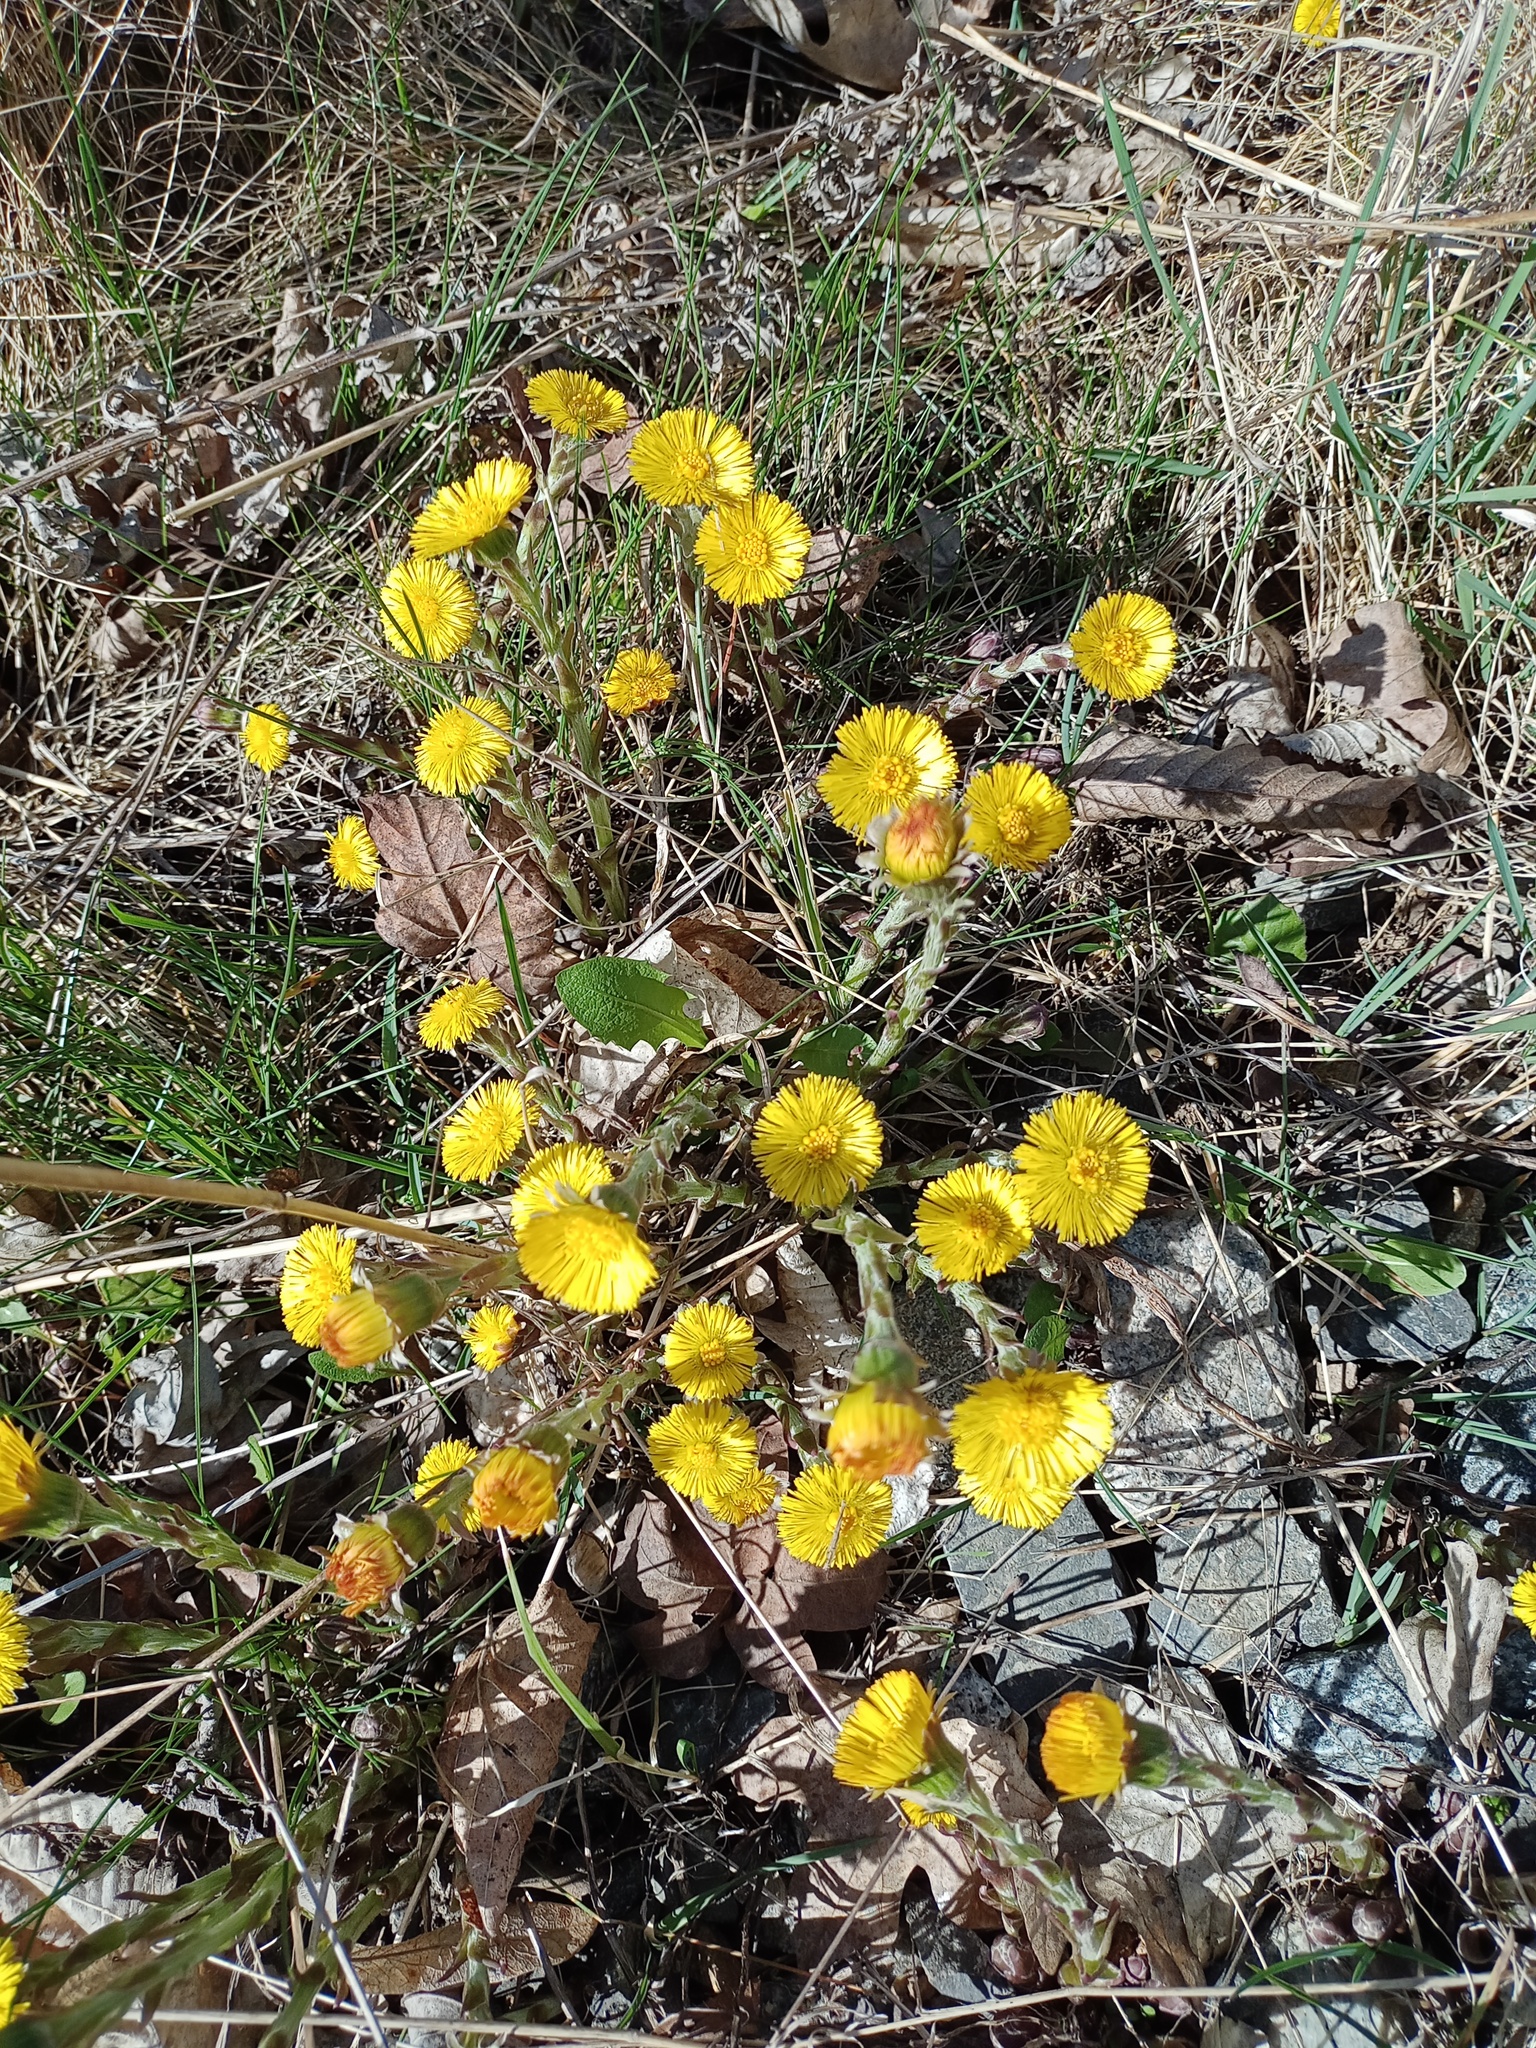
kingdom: Plantae
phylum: Tracheophyta
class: Magnoliopsida
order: Asterales
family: Asteraceae
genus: Tussilago
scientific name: Tussilago farfara
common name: Coltsfoot
